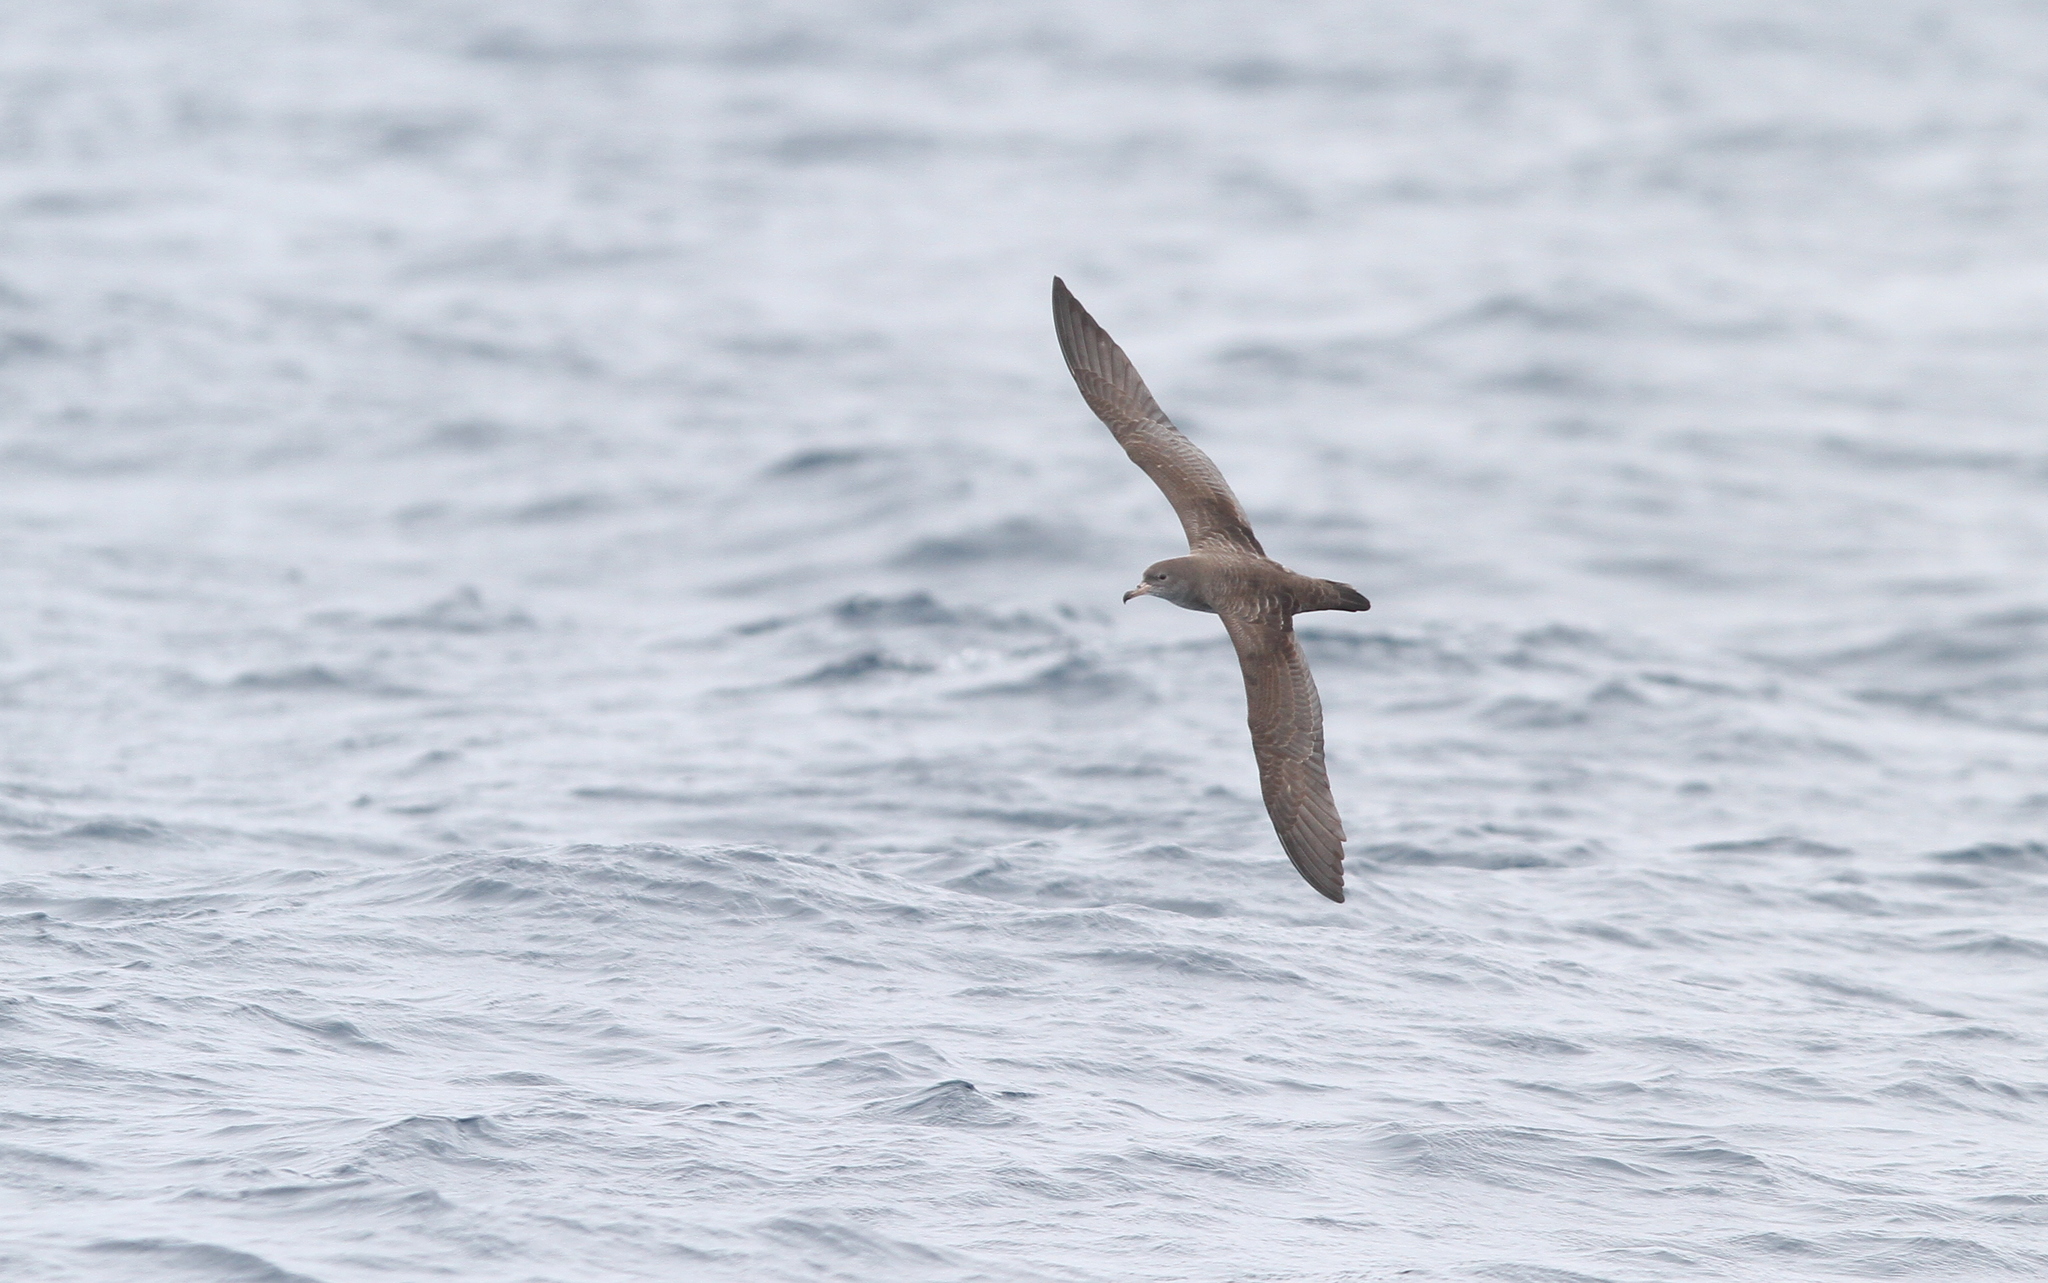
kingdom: Animalia
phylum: Chordata
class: Aves
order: Procellariiformes
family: Procellariidae
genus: Puffinus
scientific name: Puffinus creatopus
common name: Pink-footed shearwater
